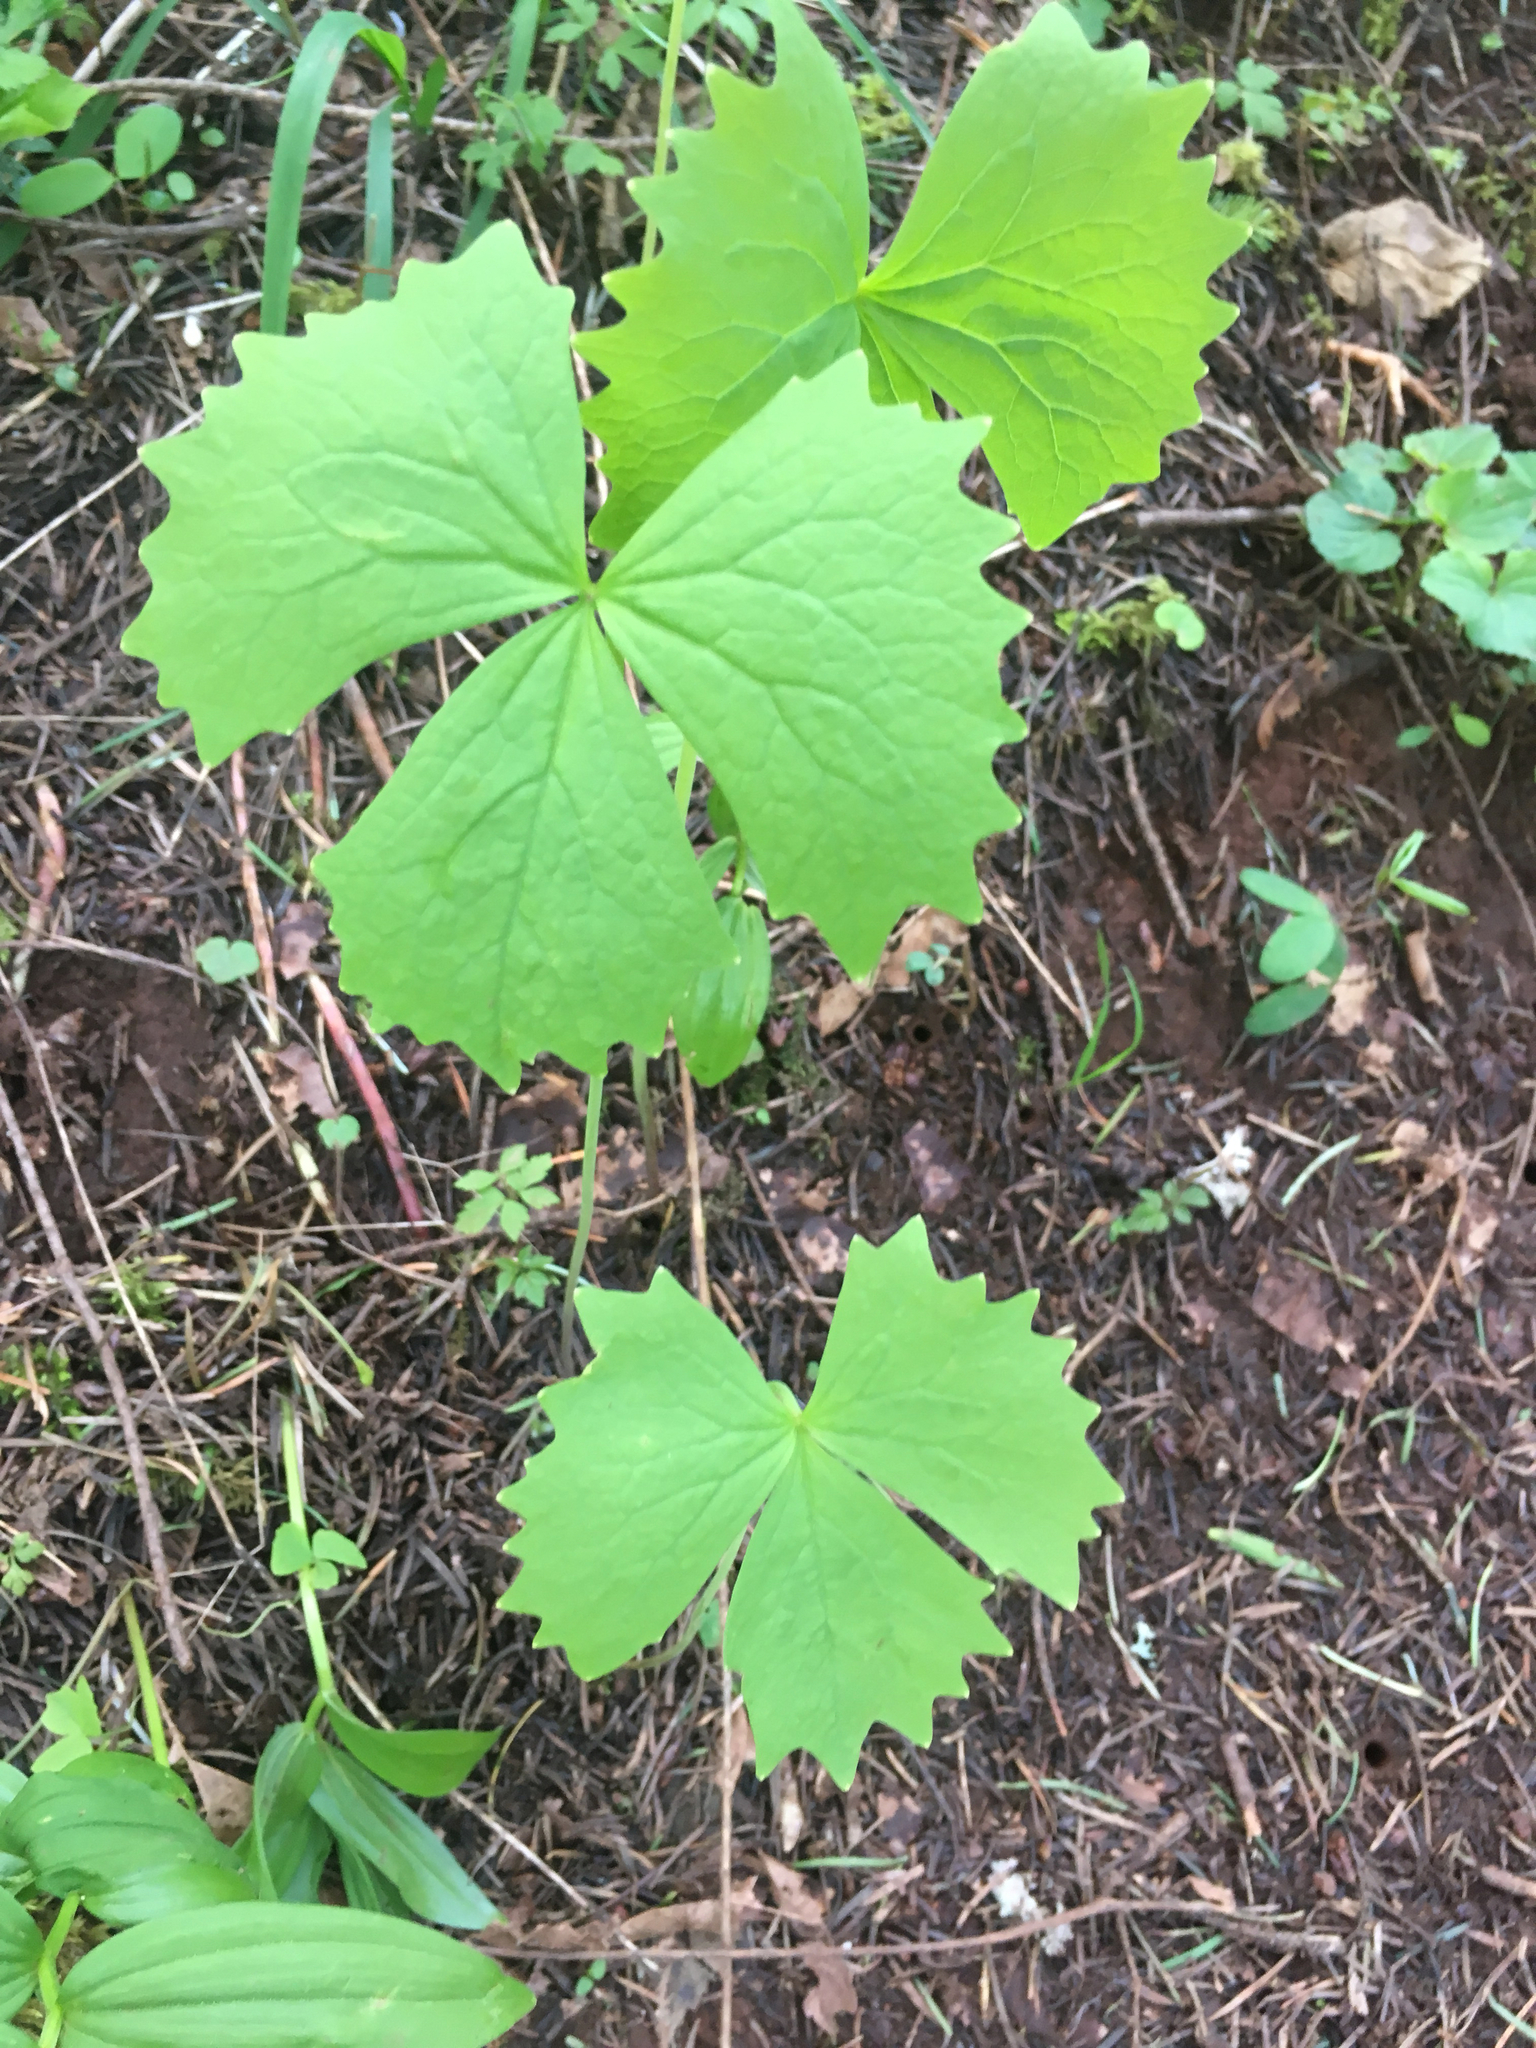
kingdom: Plantae
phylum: Tracheophyta
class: Magnoliopsida
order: Ranunculales
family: Berberidaceae
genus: Achlys
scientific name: Achlys californica
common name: California deer-foot
